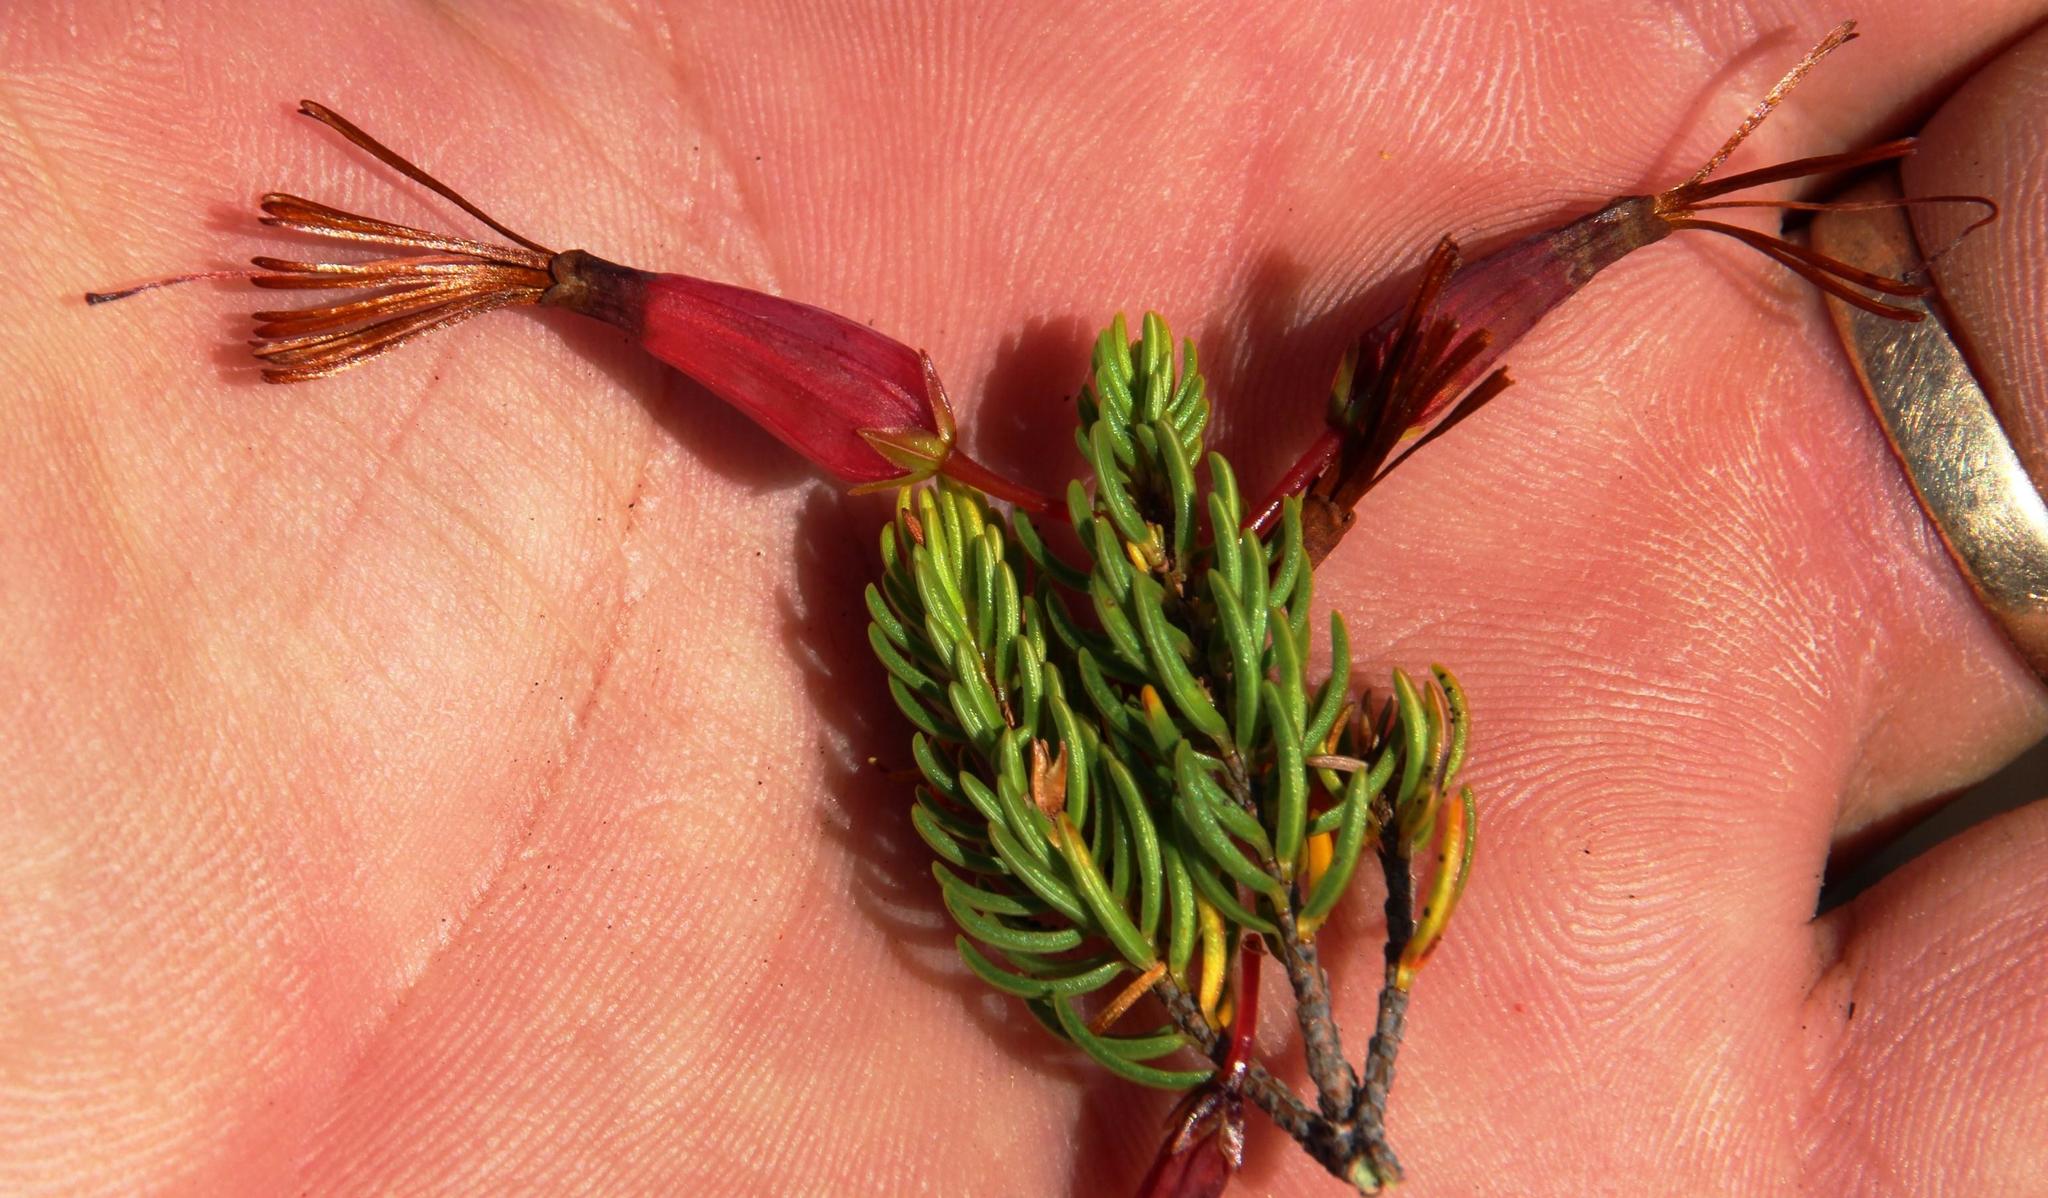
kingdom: Plantae
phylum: Tracheophyta
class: Magnoliopsida
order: Ericales
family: Ericaceae
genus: Erica
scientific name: Erica plukenetii
